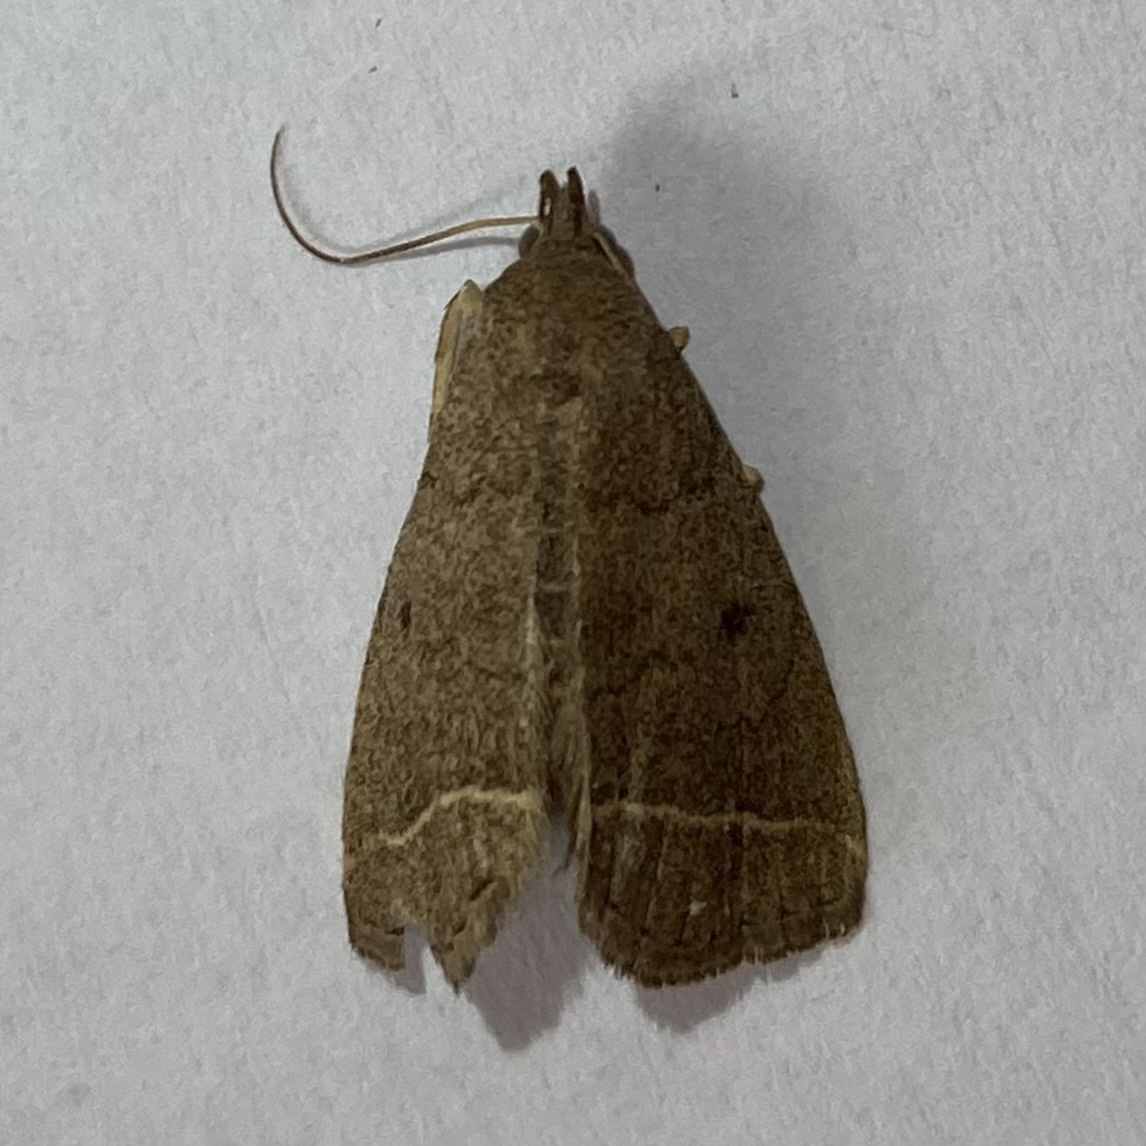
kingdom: Animalia
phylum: Arthropoda
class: Insecta
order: Lepidoptera
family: Erebidae
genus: Zanclognatha
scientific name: Zanclognatha marcidilinea
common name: Yellowish fan-foot
